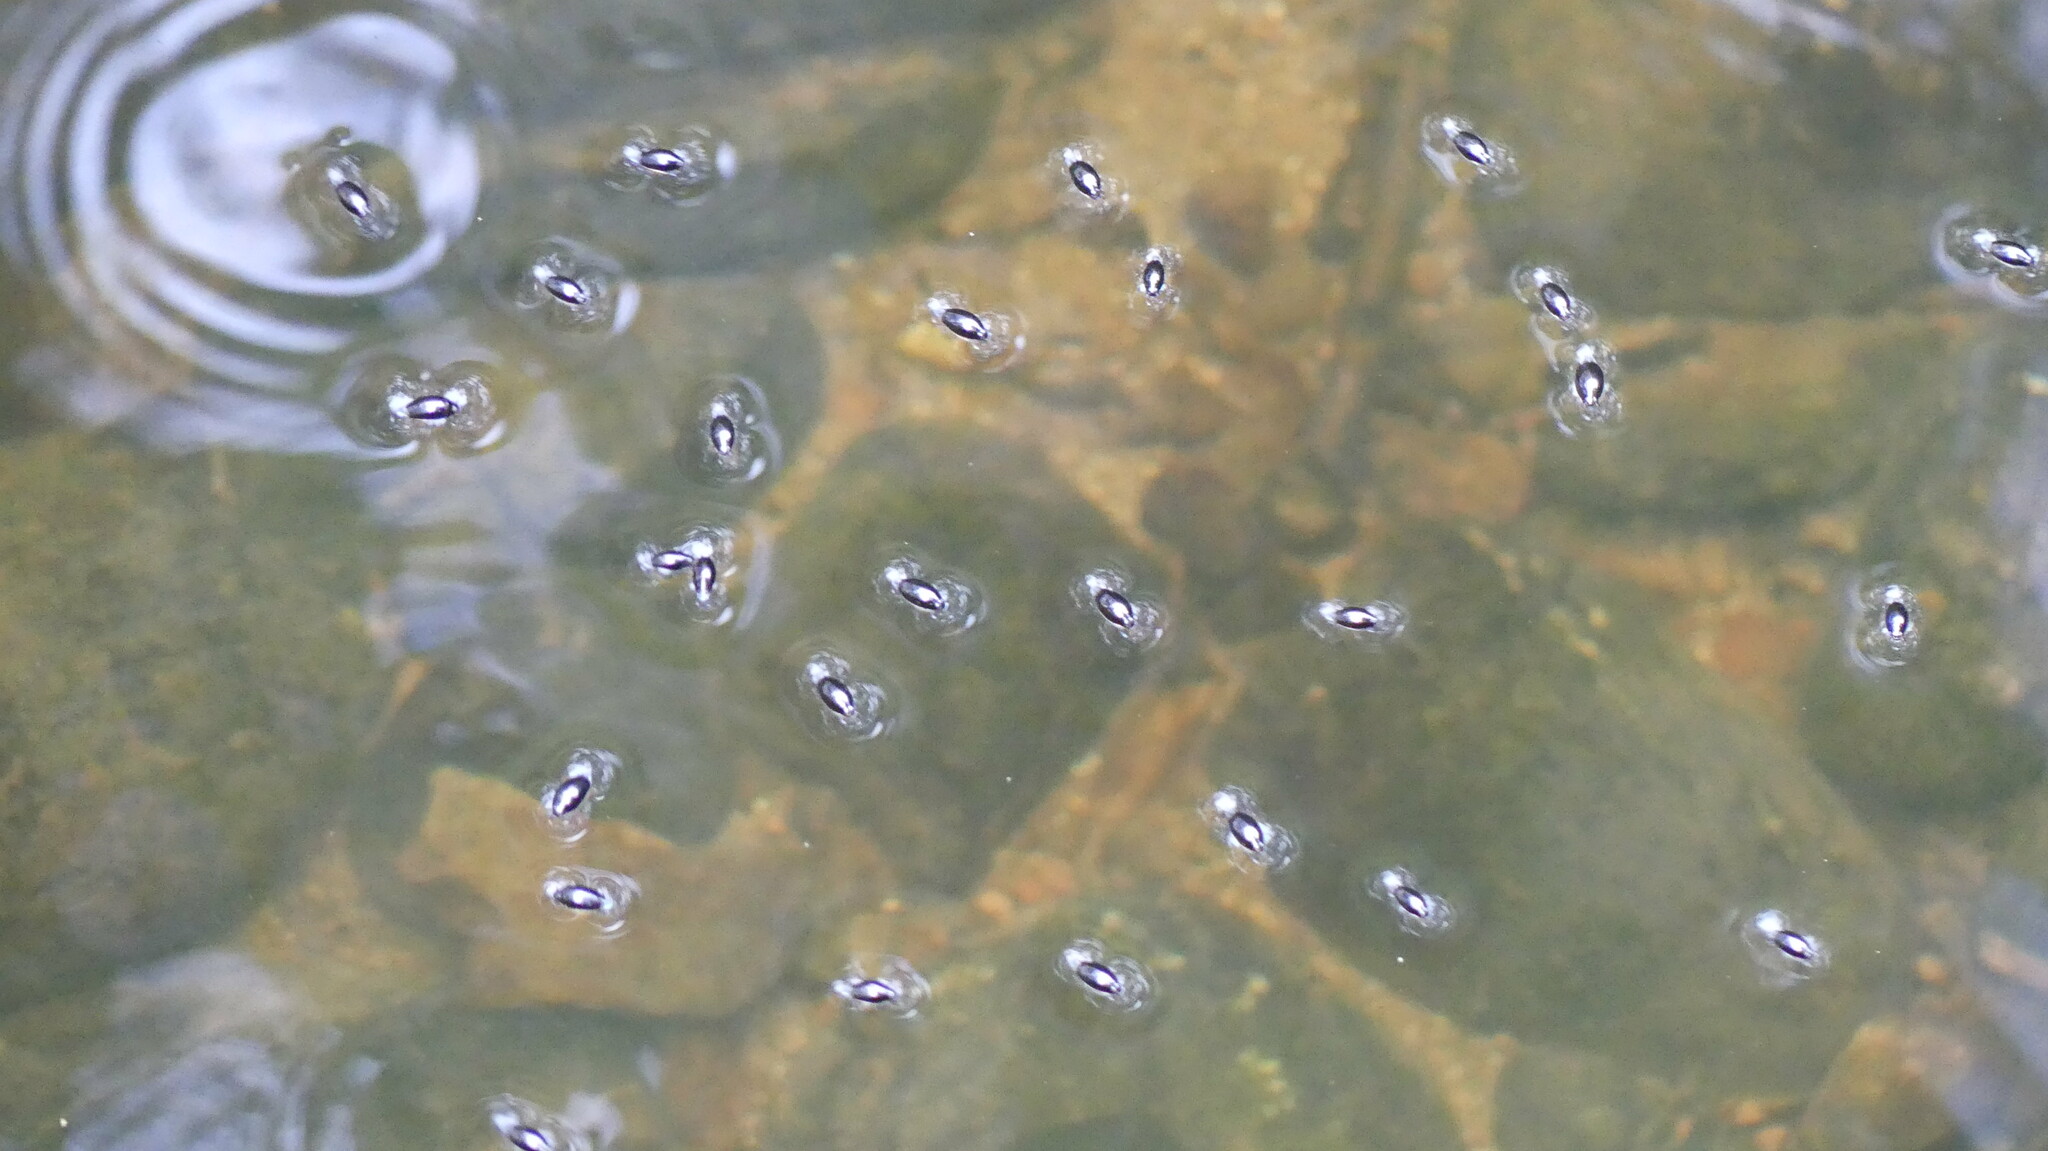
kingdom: Animalia
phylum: Arthropoda
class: Insecta
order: Coleoptera
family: Gyrinidae
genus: Gyrinus
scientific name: Gyrinus
